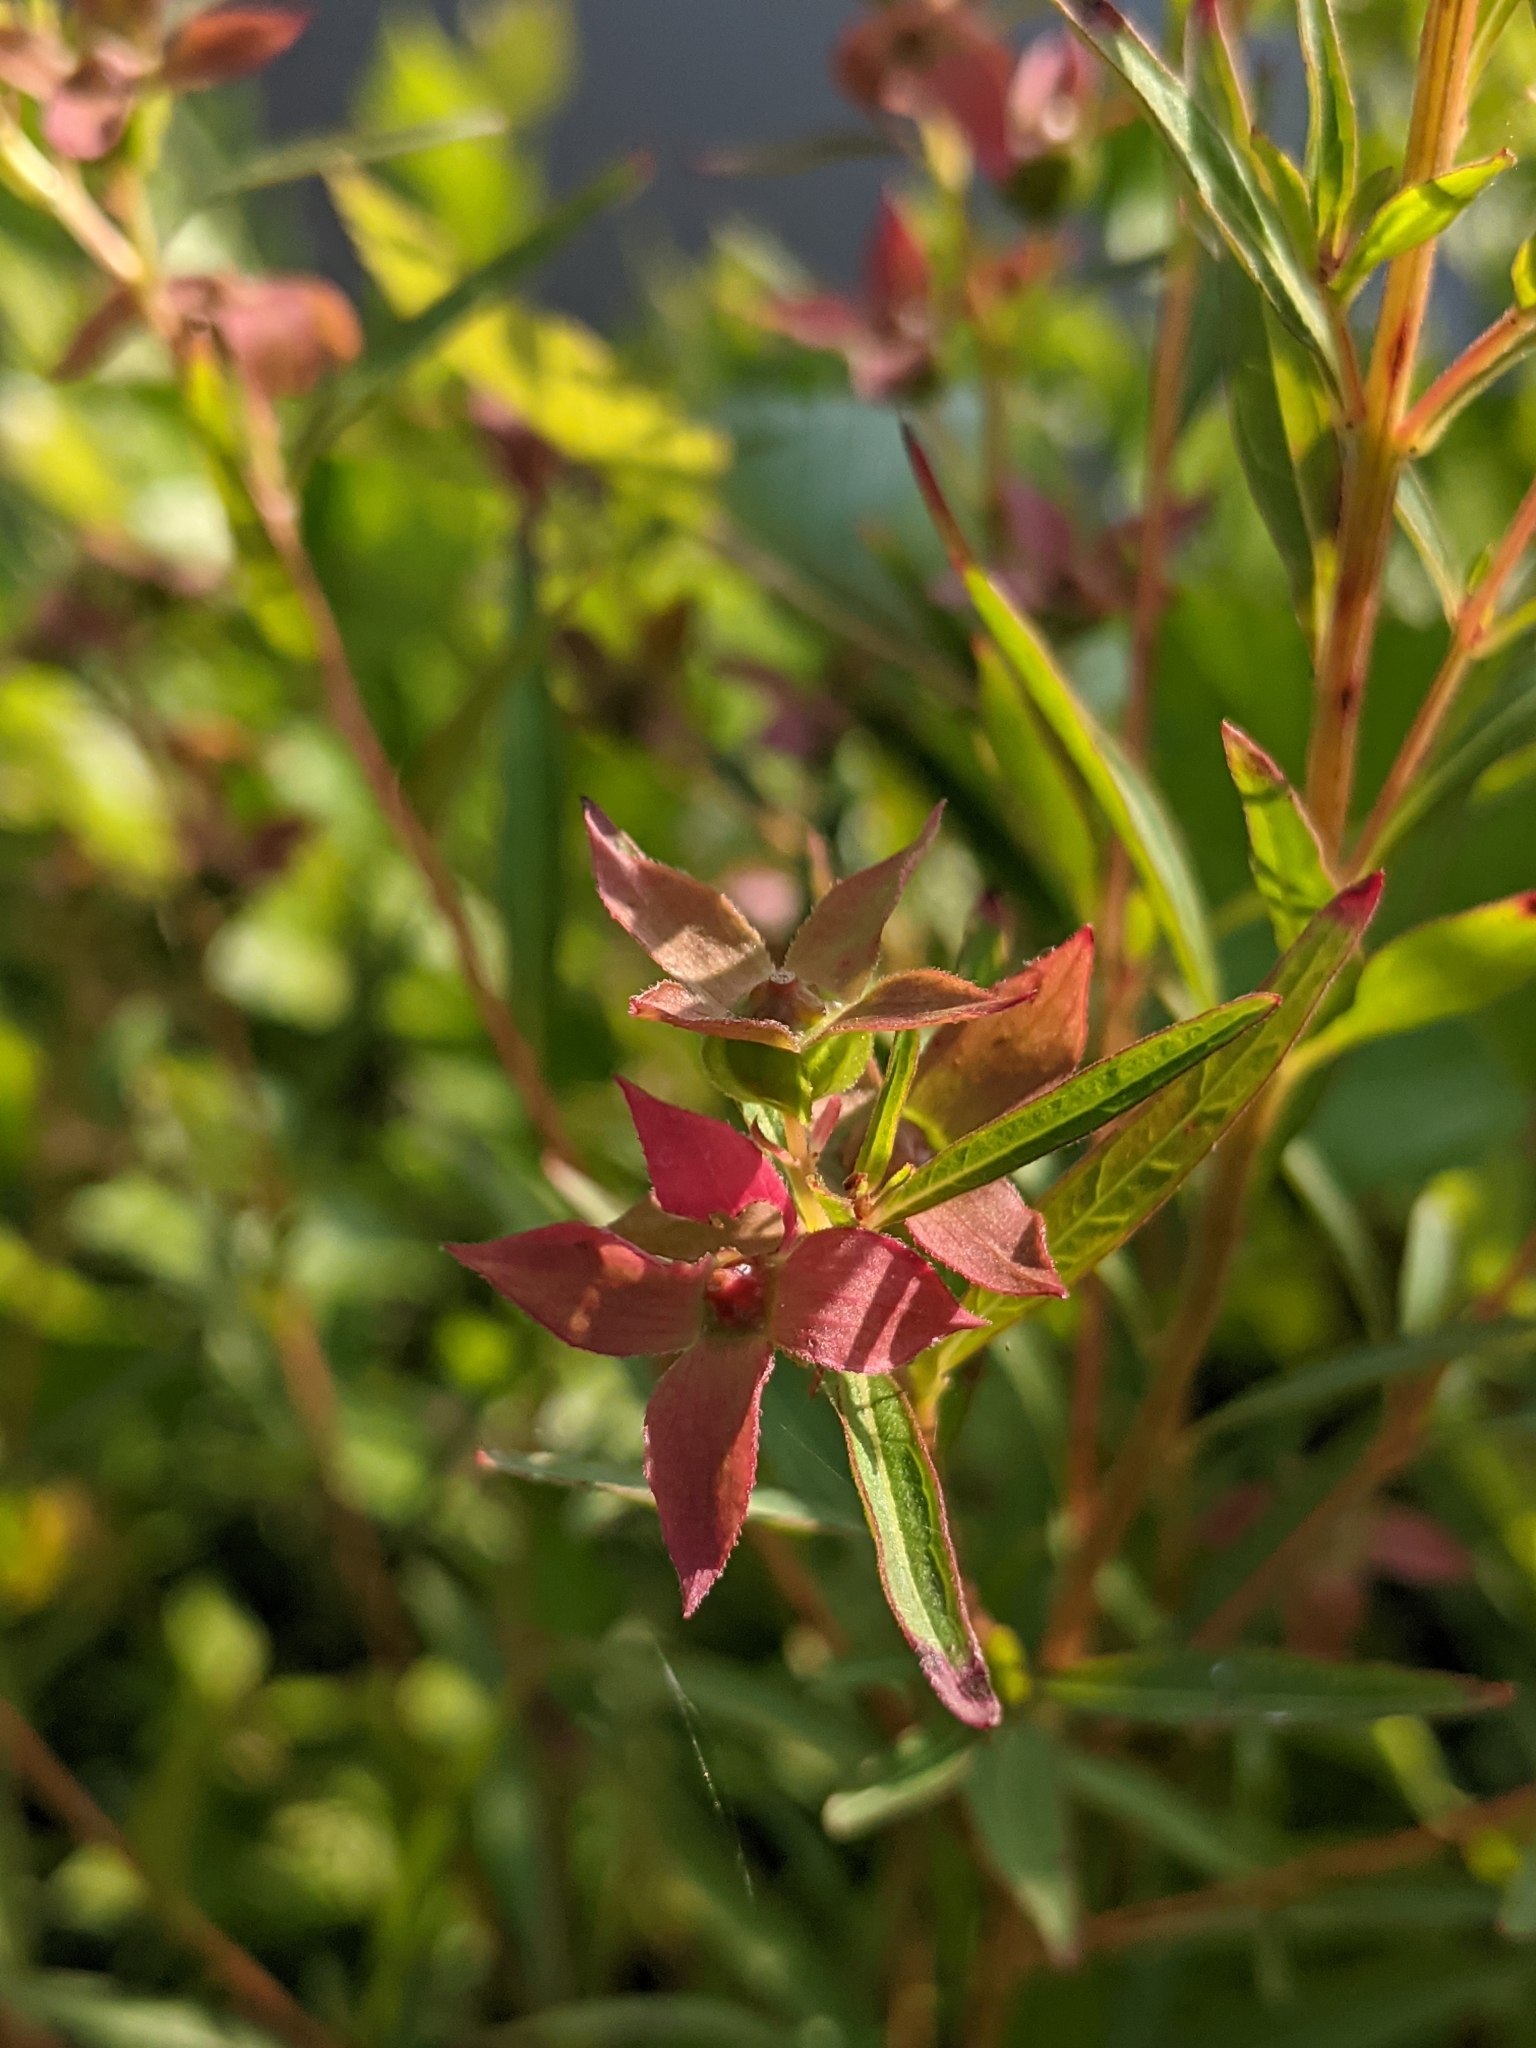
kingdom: Plantae
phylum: Tracheophyta
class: Magnoliopsida
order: Myrtales
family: Onagraceae
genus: Ludwigia
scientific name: Ludwigia alternifolia
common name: Rattlebox
